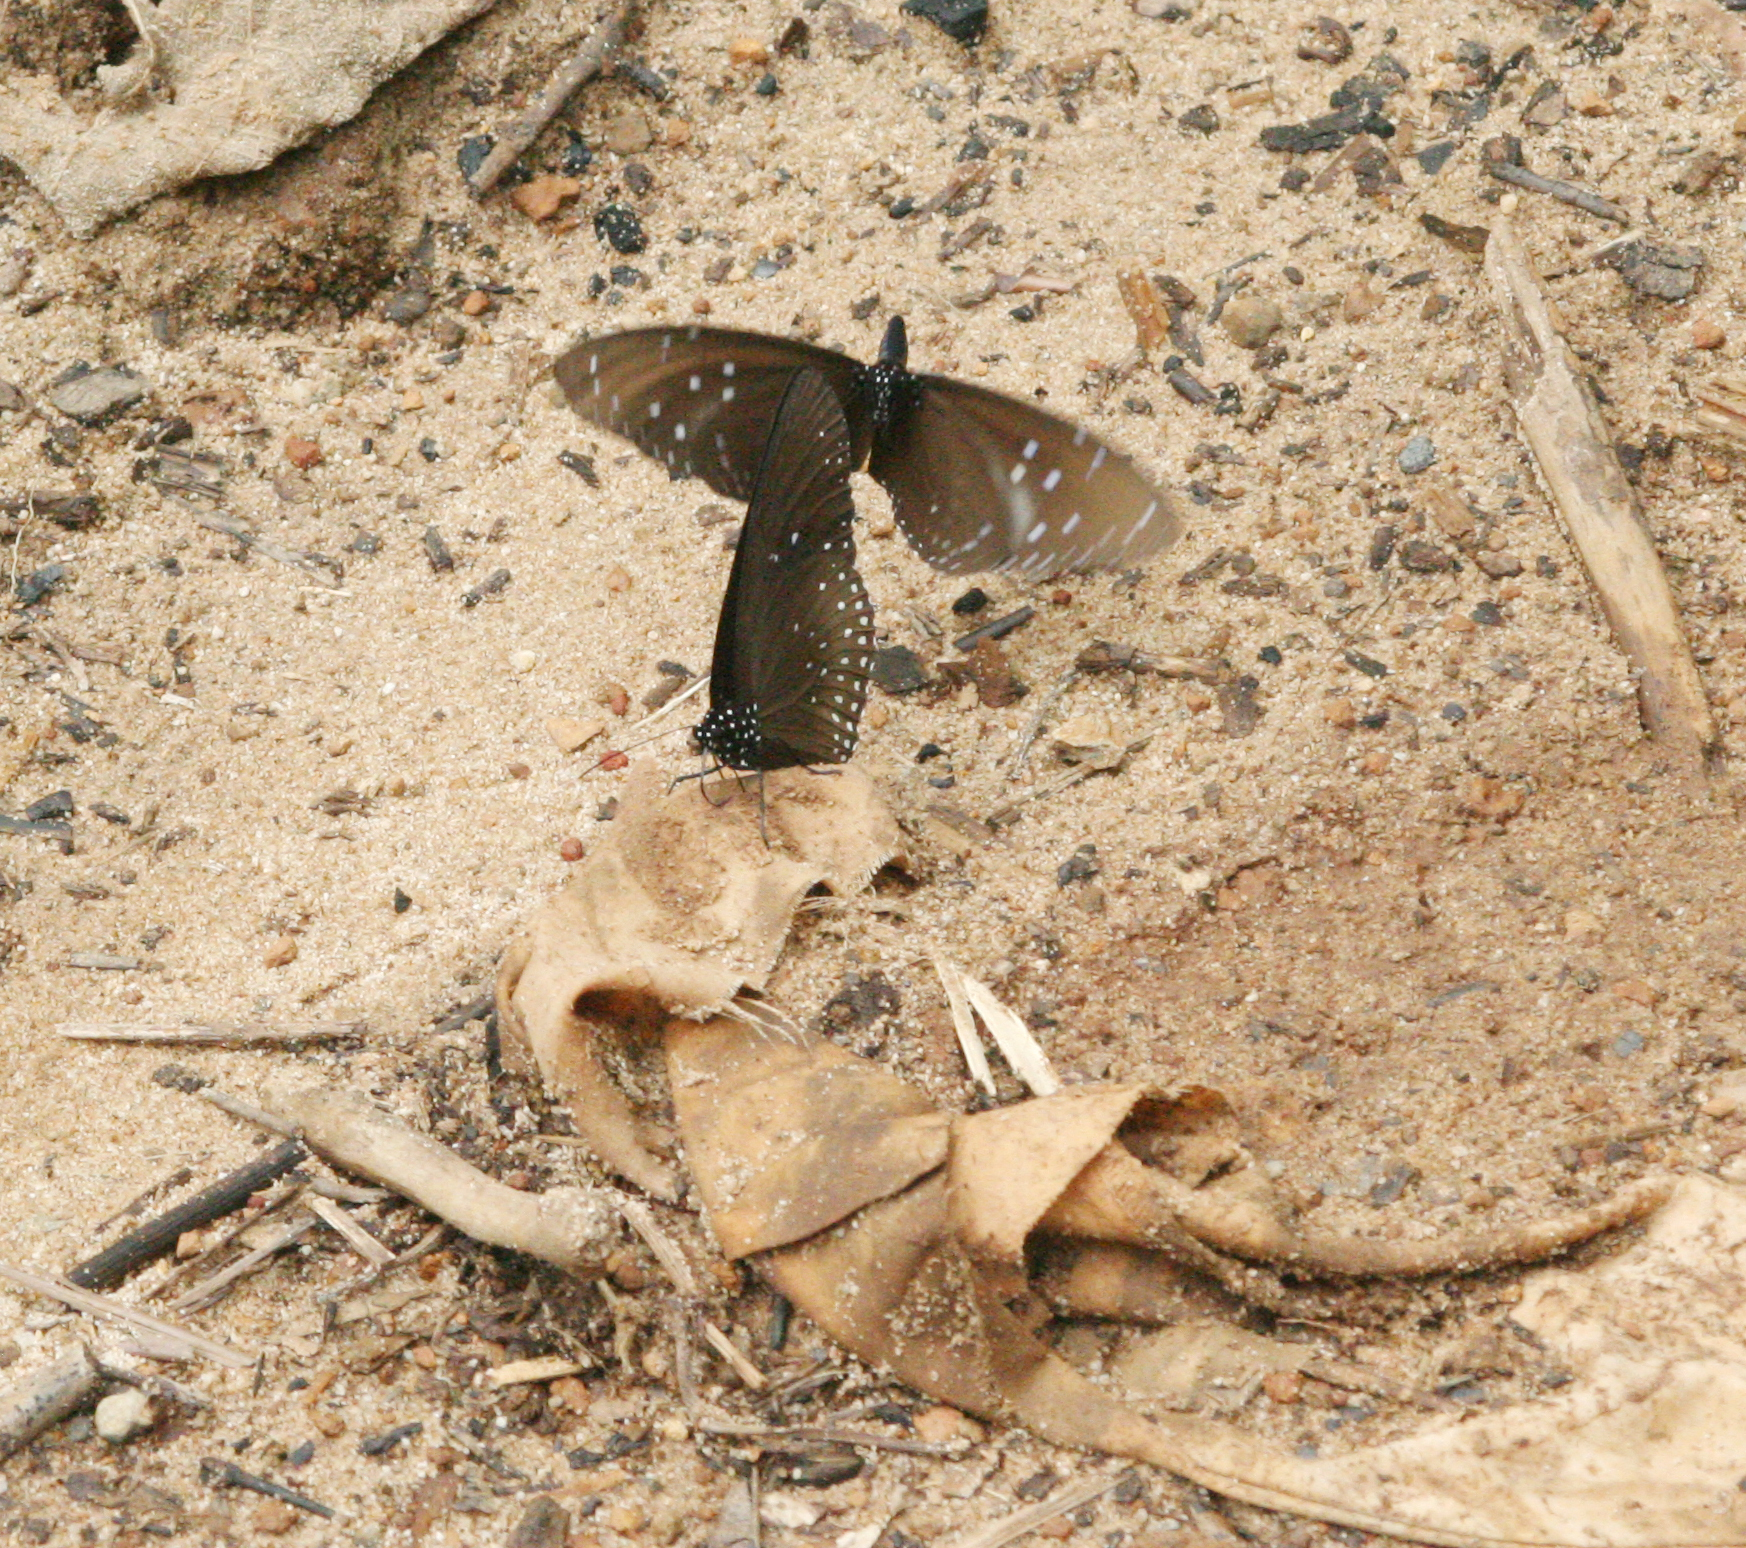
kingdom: Animalia
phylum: Arthropoda
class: Insecta
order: Lepidoptera
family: Nymphalidae
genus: Euploea
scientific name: Euploea sylvester
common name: Double-branded crow butterfly
